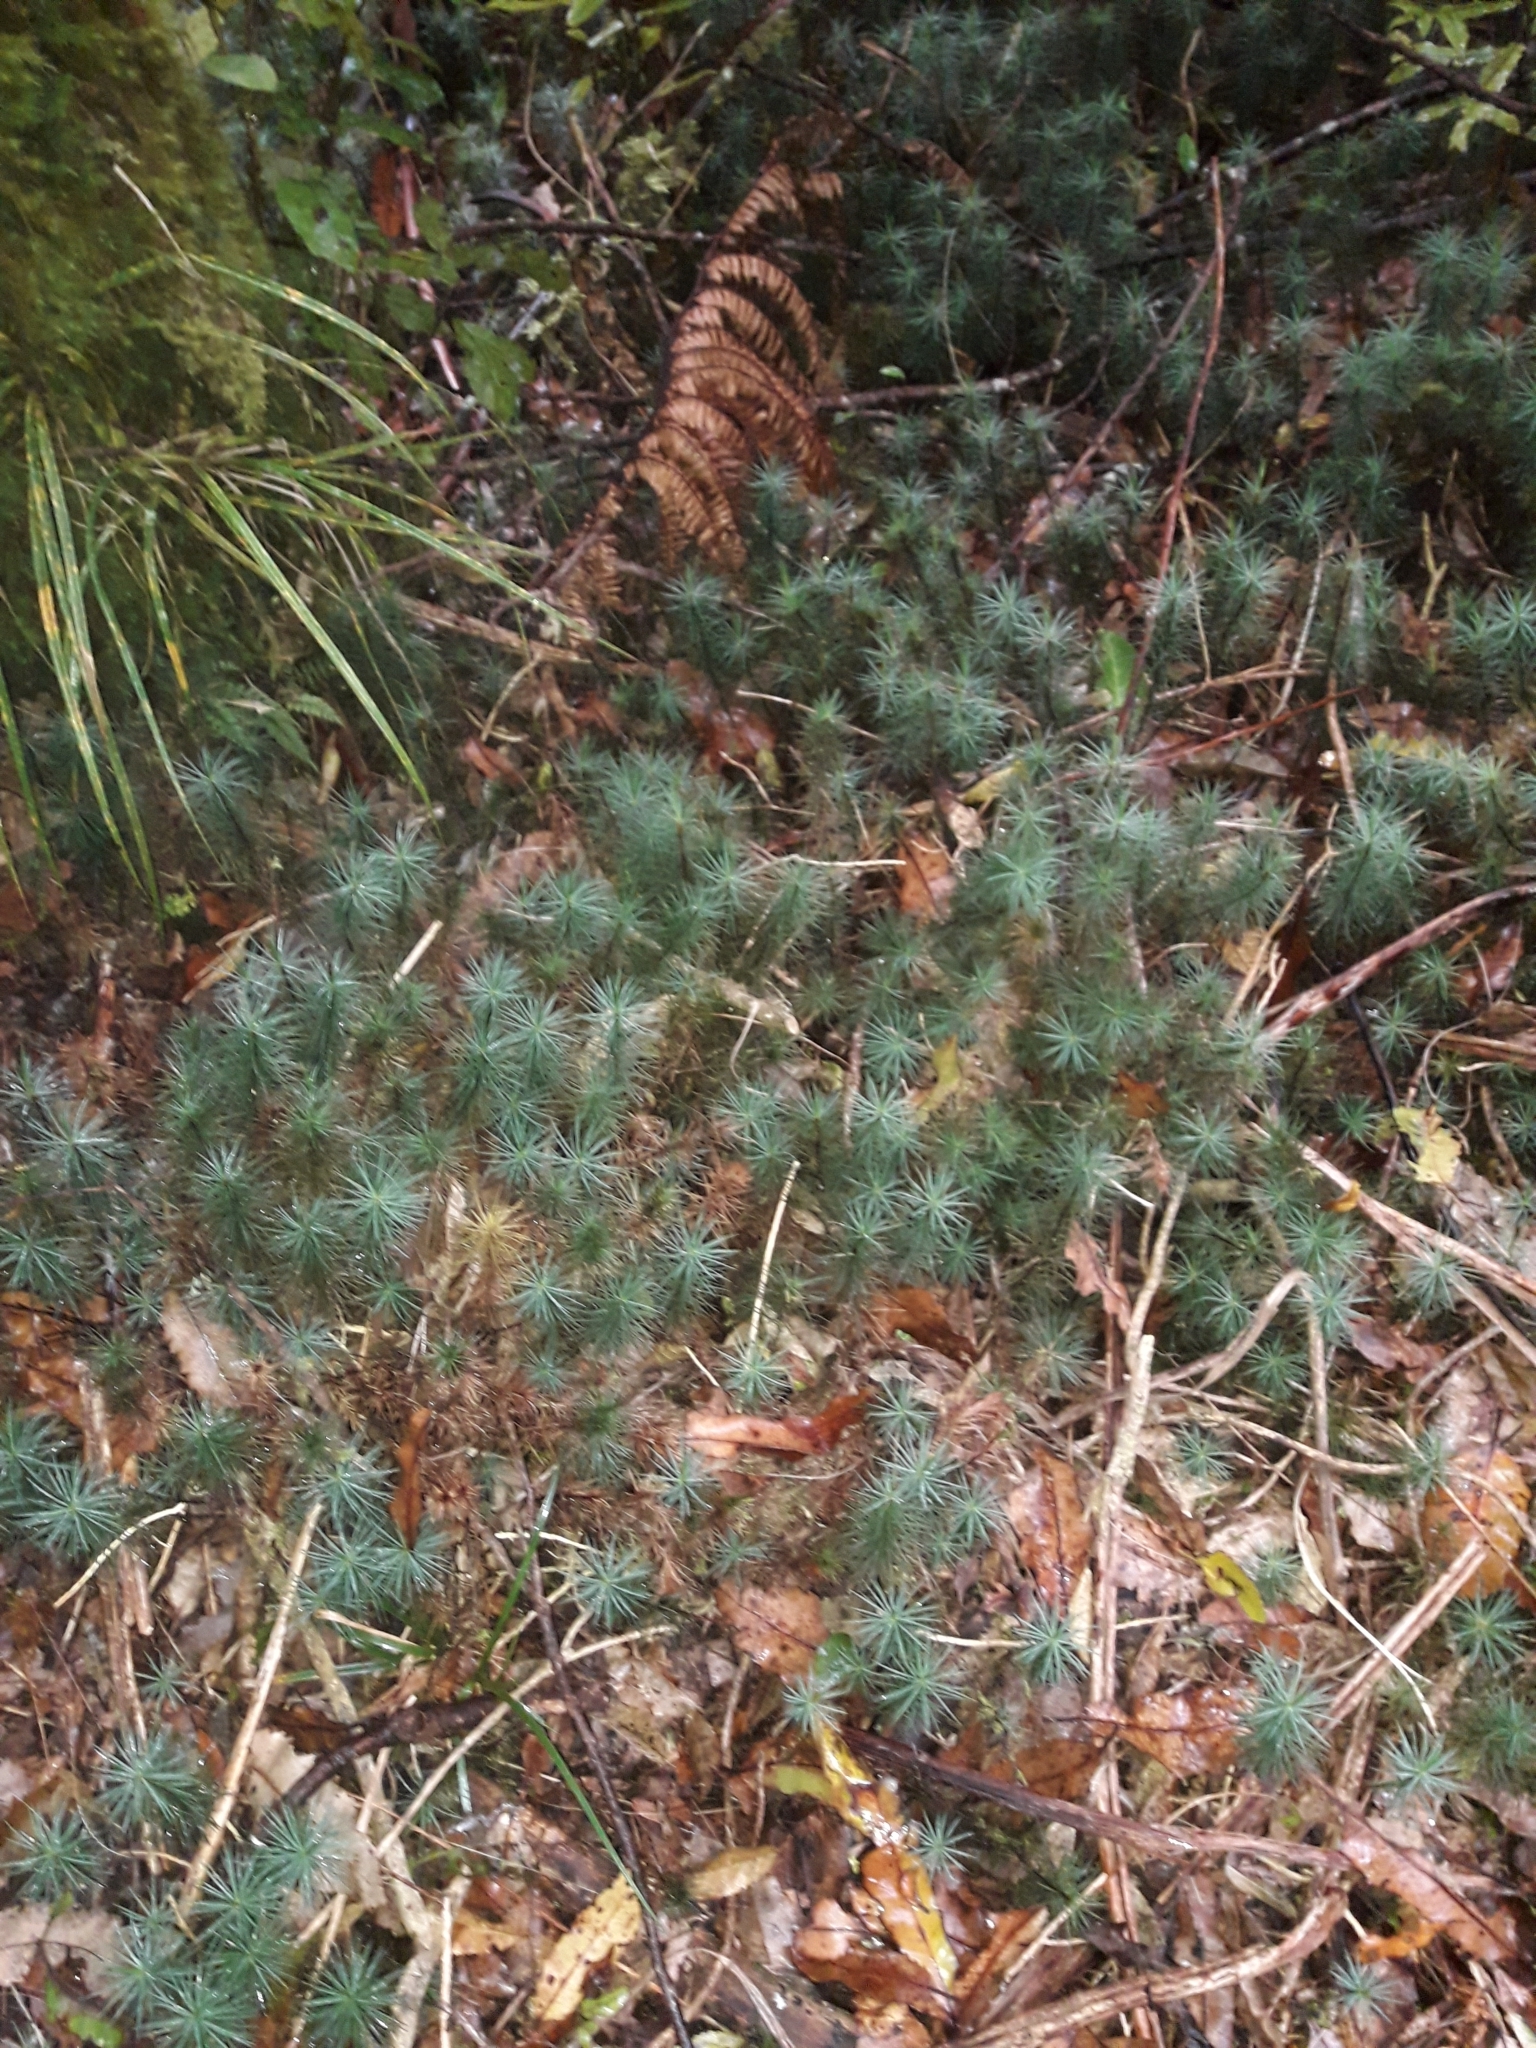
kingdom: Plantae
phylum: Bryophyta
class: Polytrichopsida
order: Polytrichales
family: Polytrichaceae
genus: Dawsonia
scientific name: Dawsonia superba
